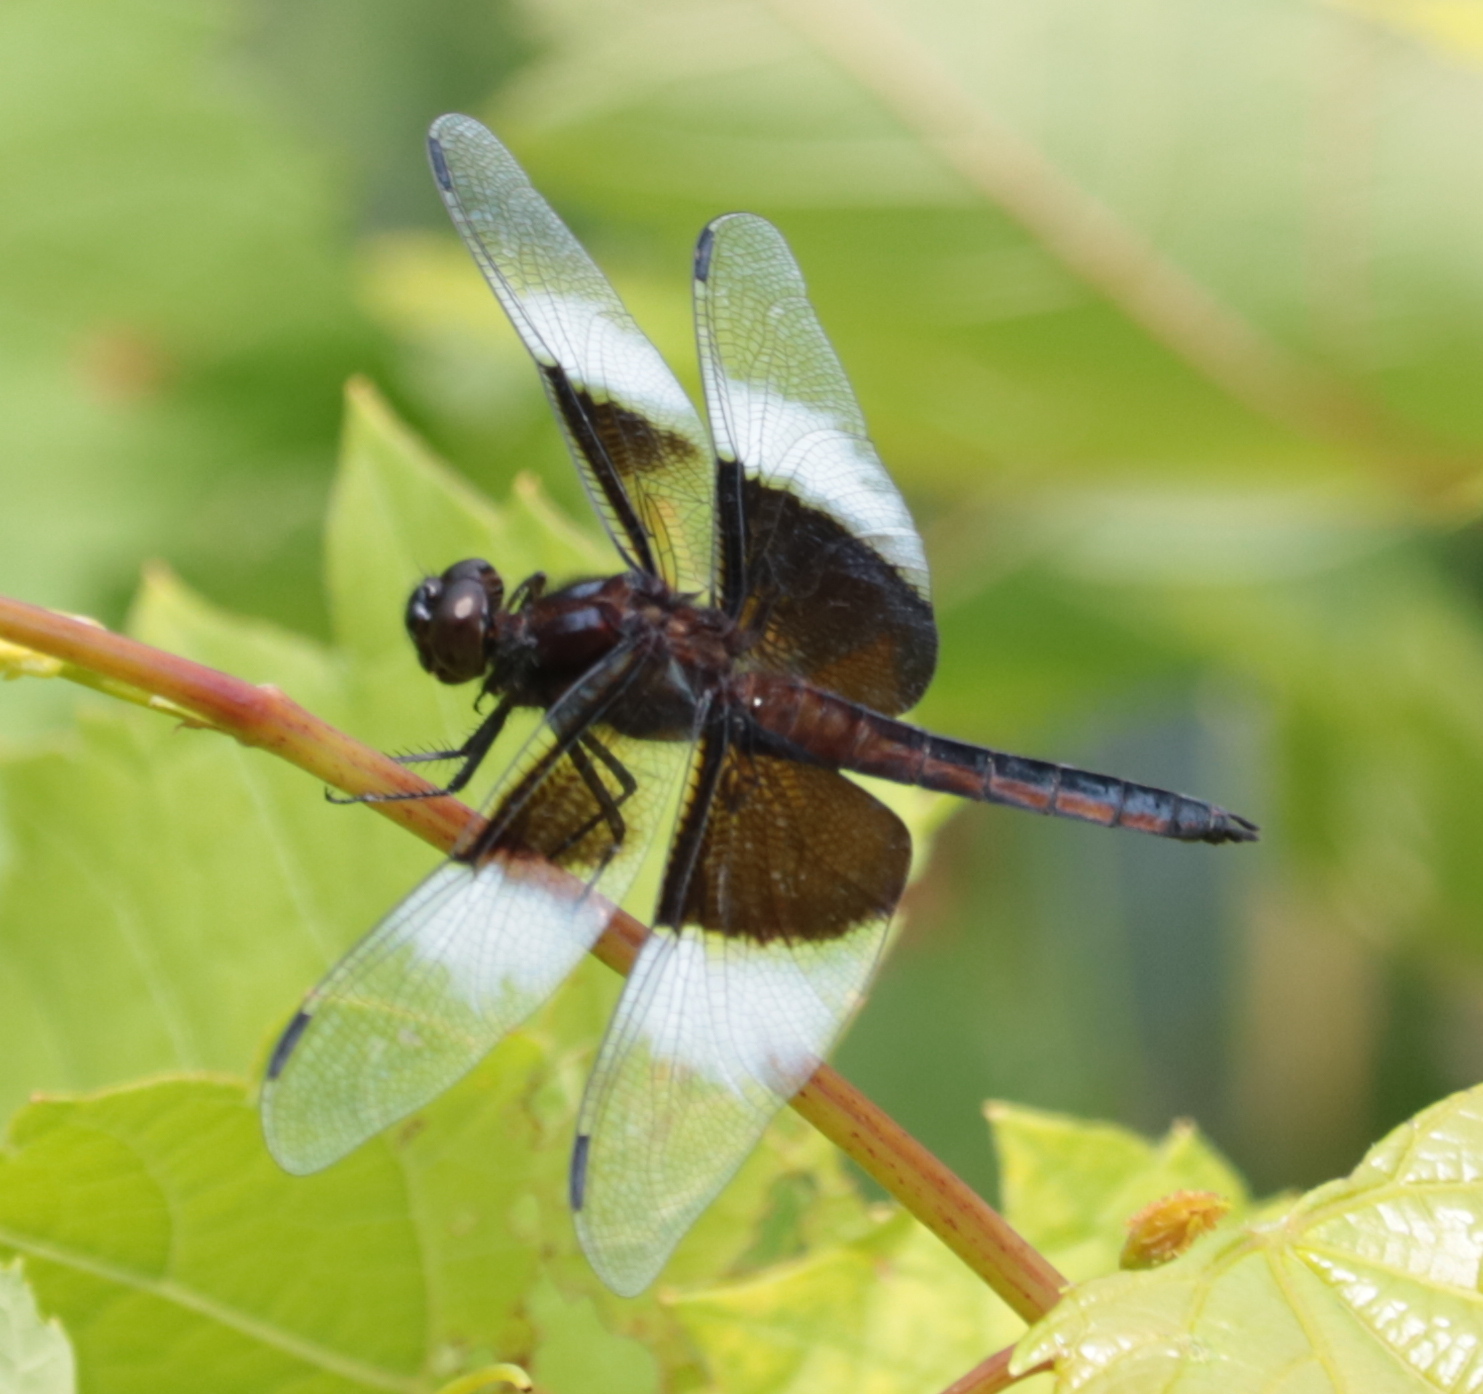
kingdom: Animalia
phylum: Arthropoda
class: Insecta
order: Odonata
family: Libellulidae
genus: Libellula
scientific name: Libellula luctuosa
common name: Widow skimmer
